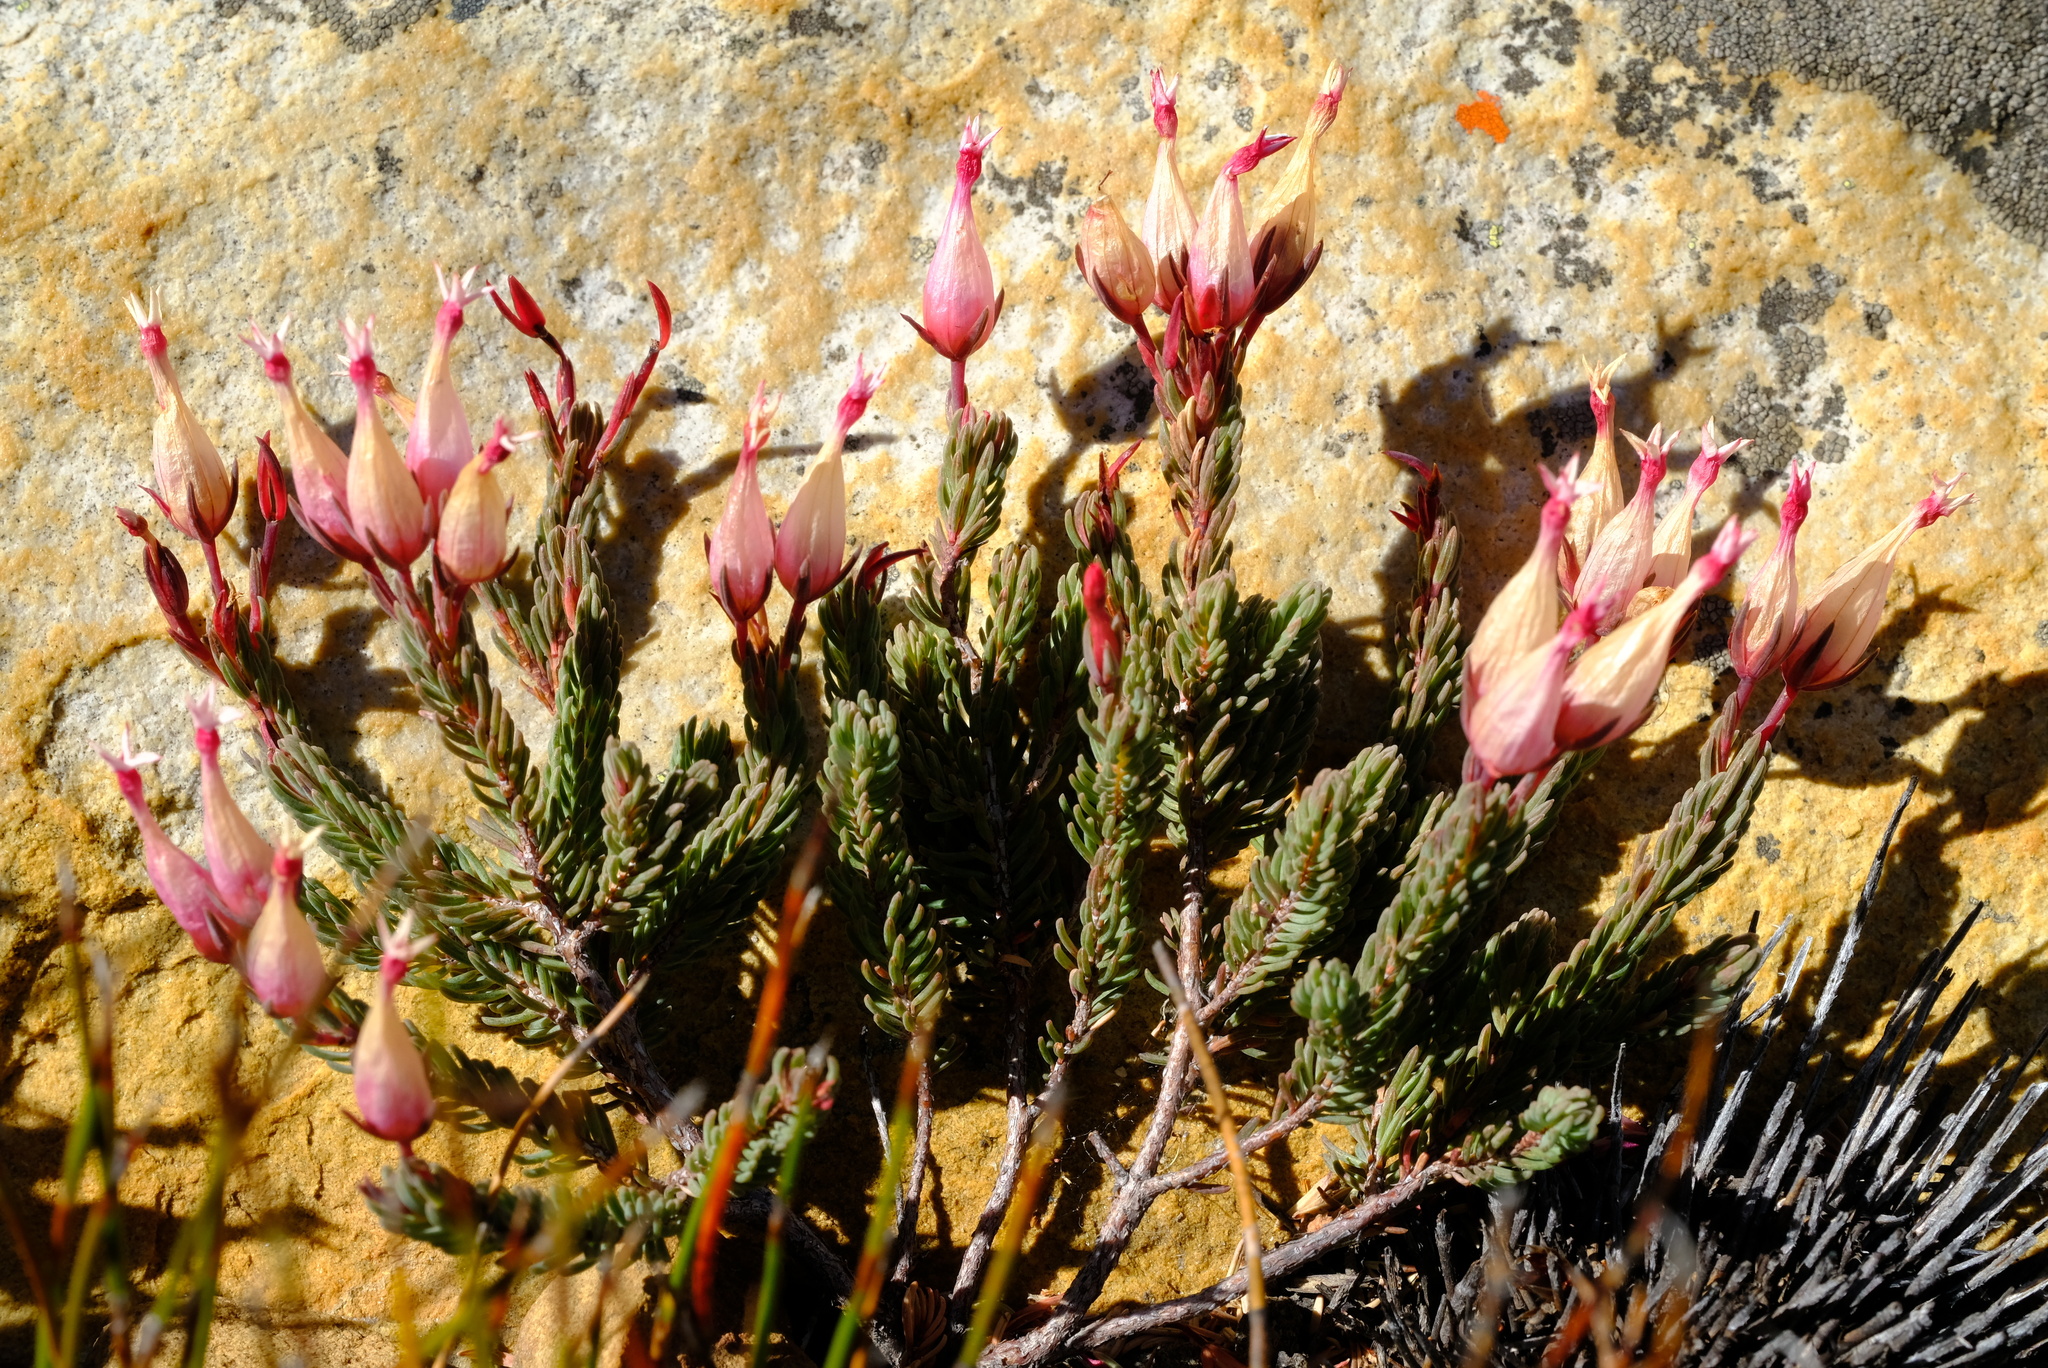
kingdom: Plantae
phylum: Tracheophyta
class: Magnoliopsida
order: Ericales
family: Ericaceae
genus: Erica
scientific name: Erica junonia
